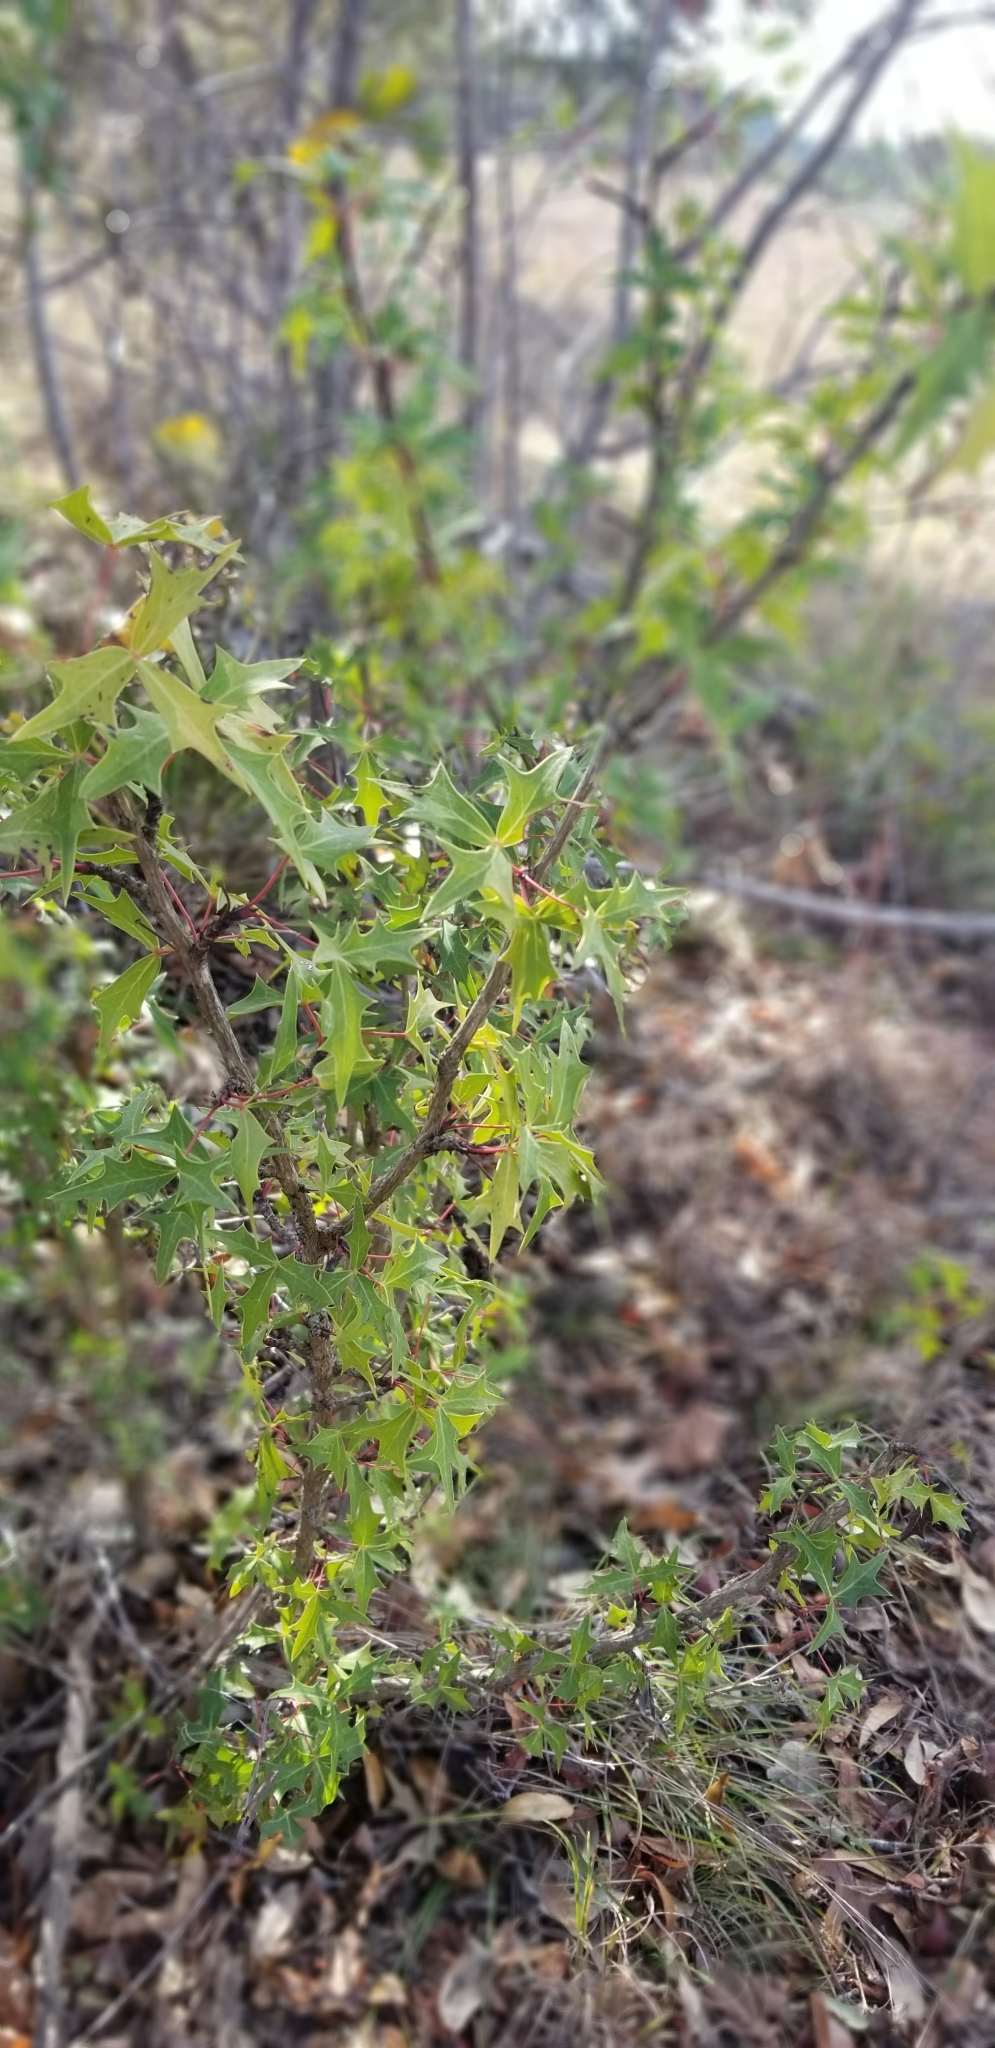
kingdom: Plantae
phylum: Tracheophyta
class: Magnoliopsida
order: Ranunculales
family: Berberidaceae
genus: Alloberberis
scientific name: Alloberberis trifoliolata
